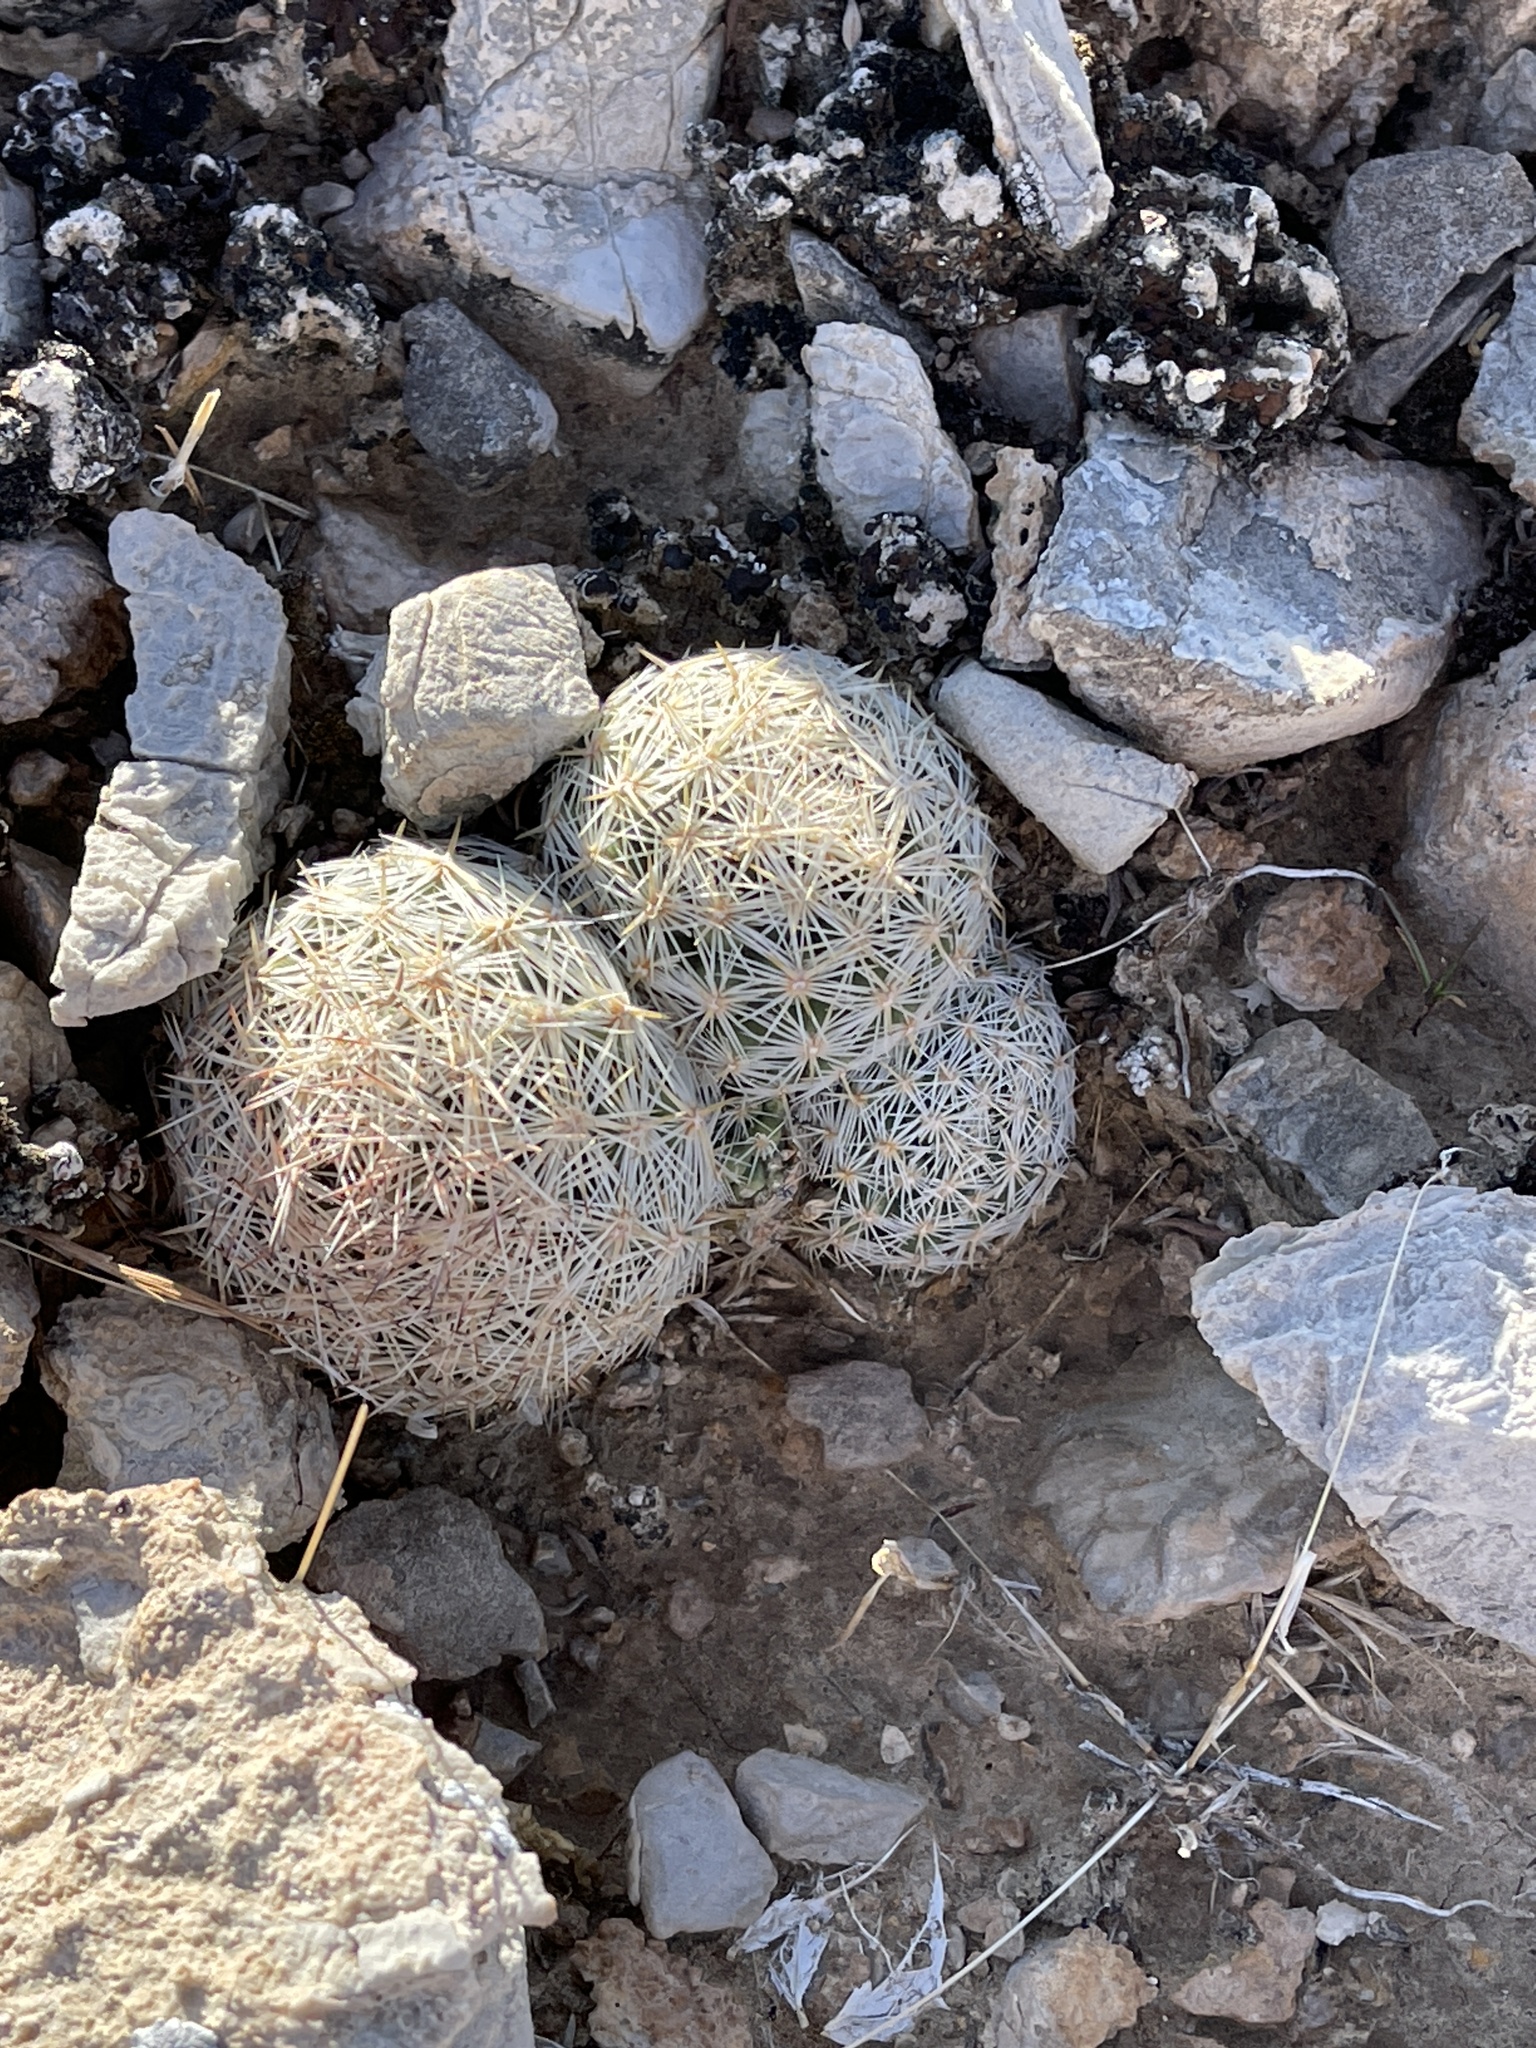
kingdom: Plantae
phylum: Tracheophyta
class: Magnoliopsida
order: Caryophyllales
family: Cactaceae
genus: Pelecyphora
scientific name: Pelecyphora dasyacantha
